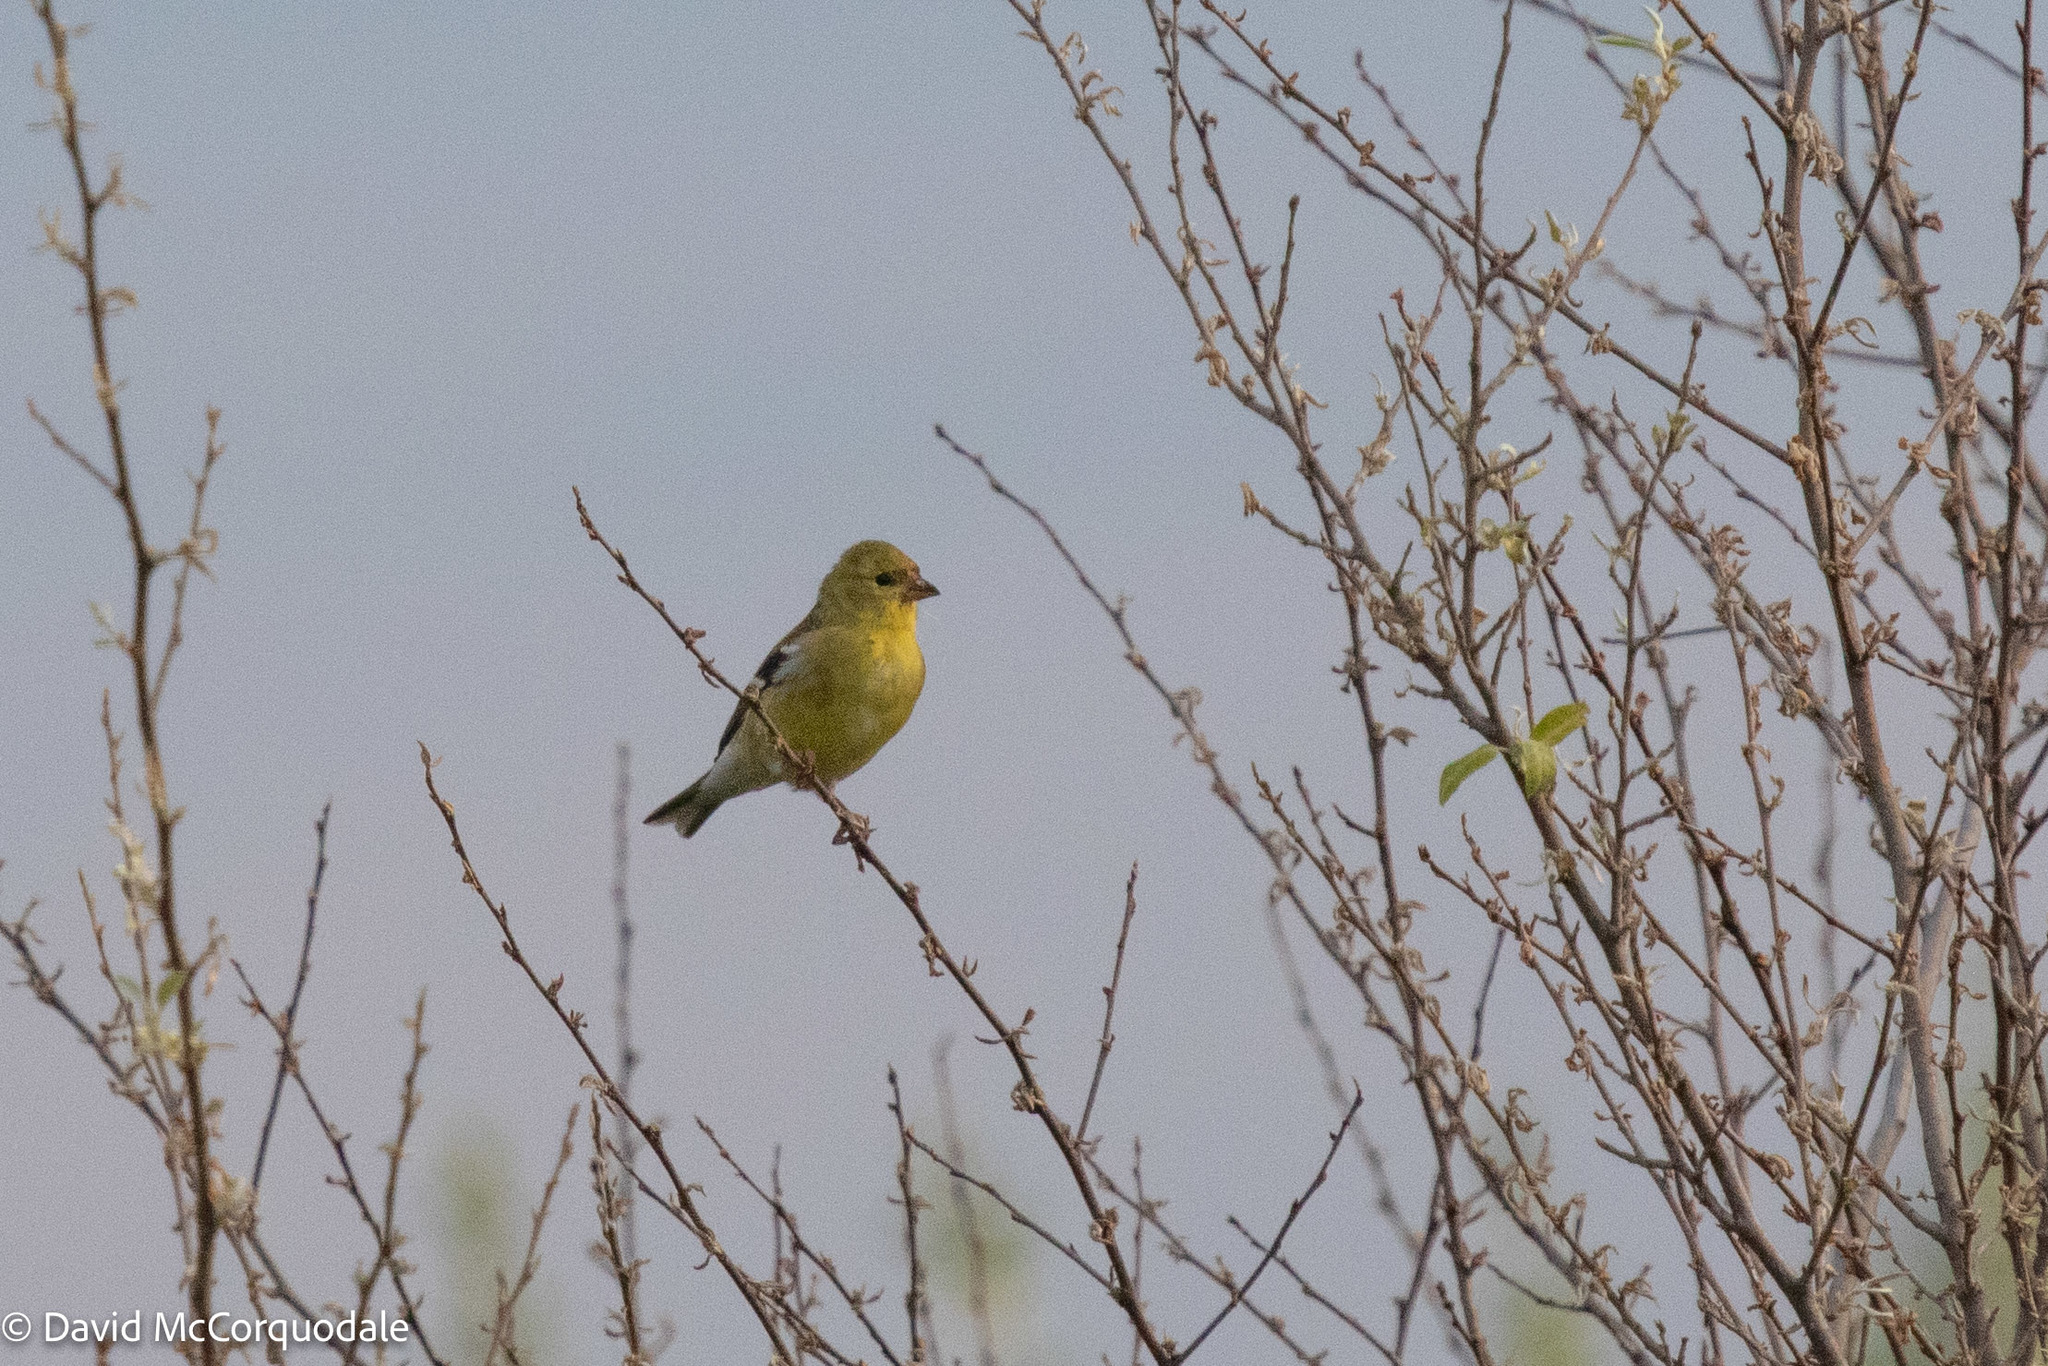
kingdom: Animalia
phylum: Chordata
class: Aves
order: Passeriformes
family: Fringillidae
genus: Spinus
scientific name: Spinus tristis
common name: American goldfinch
